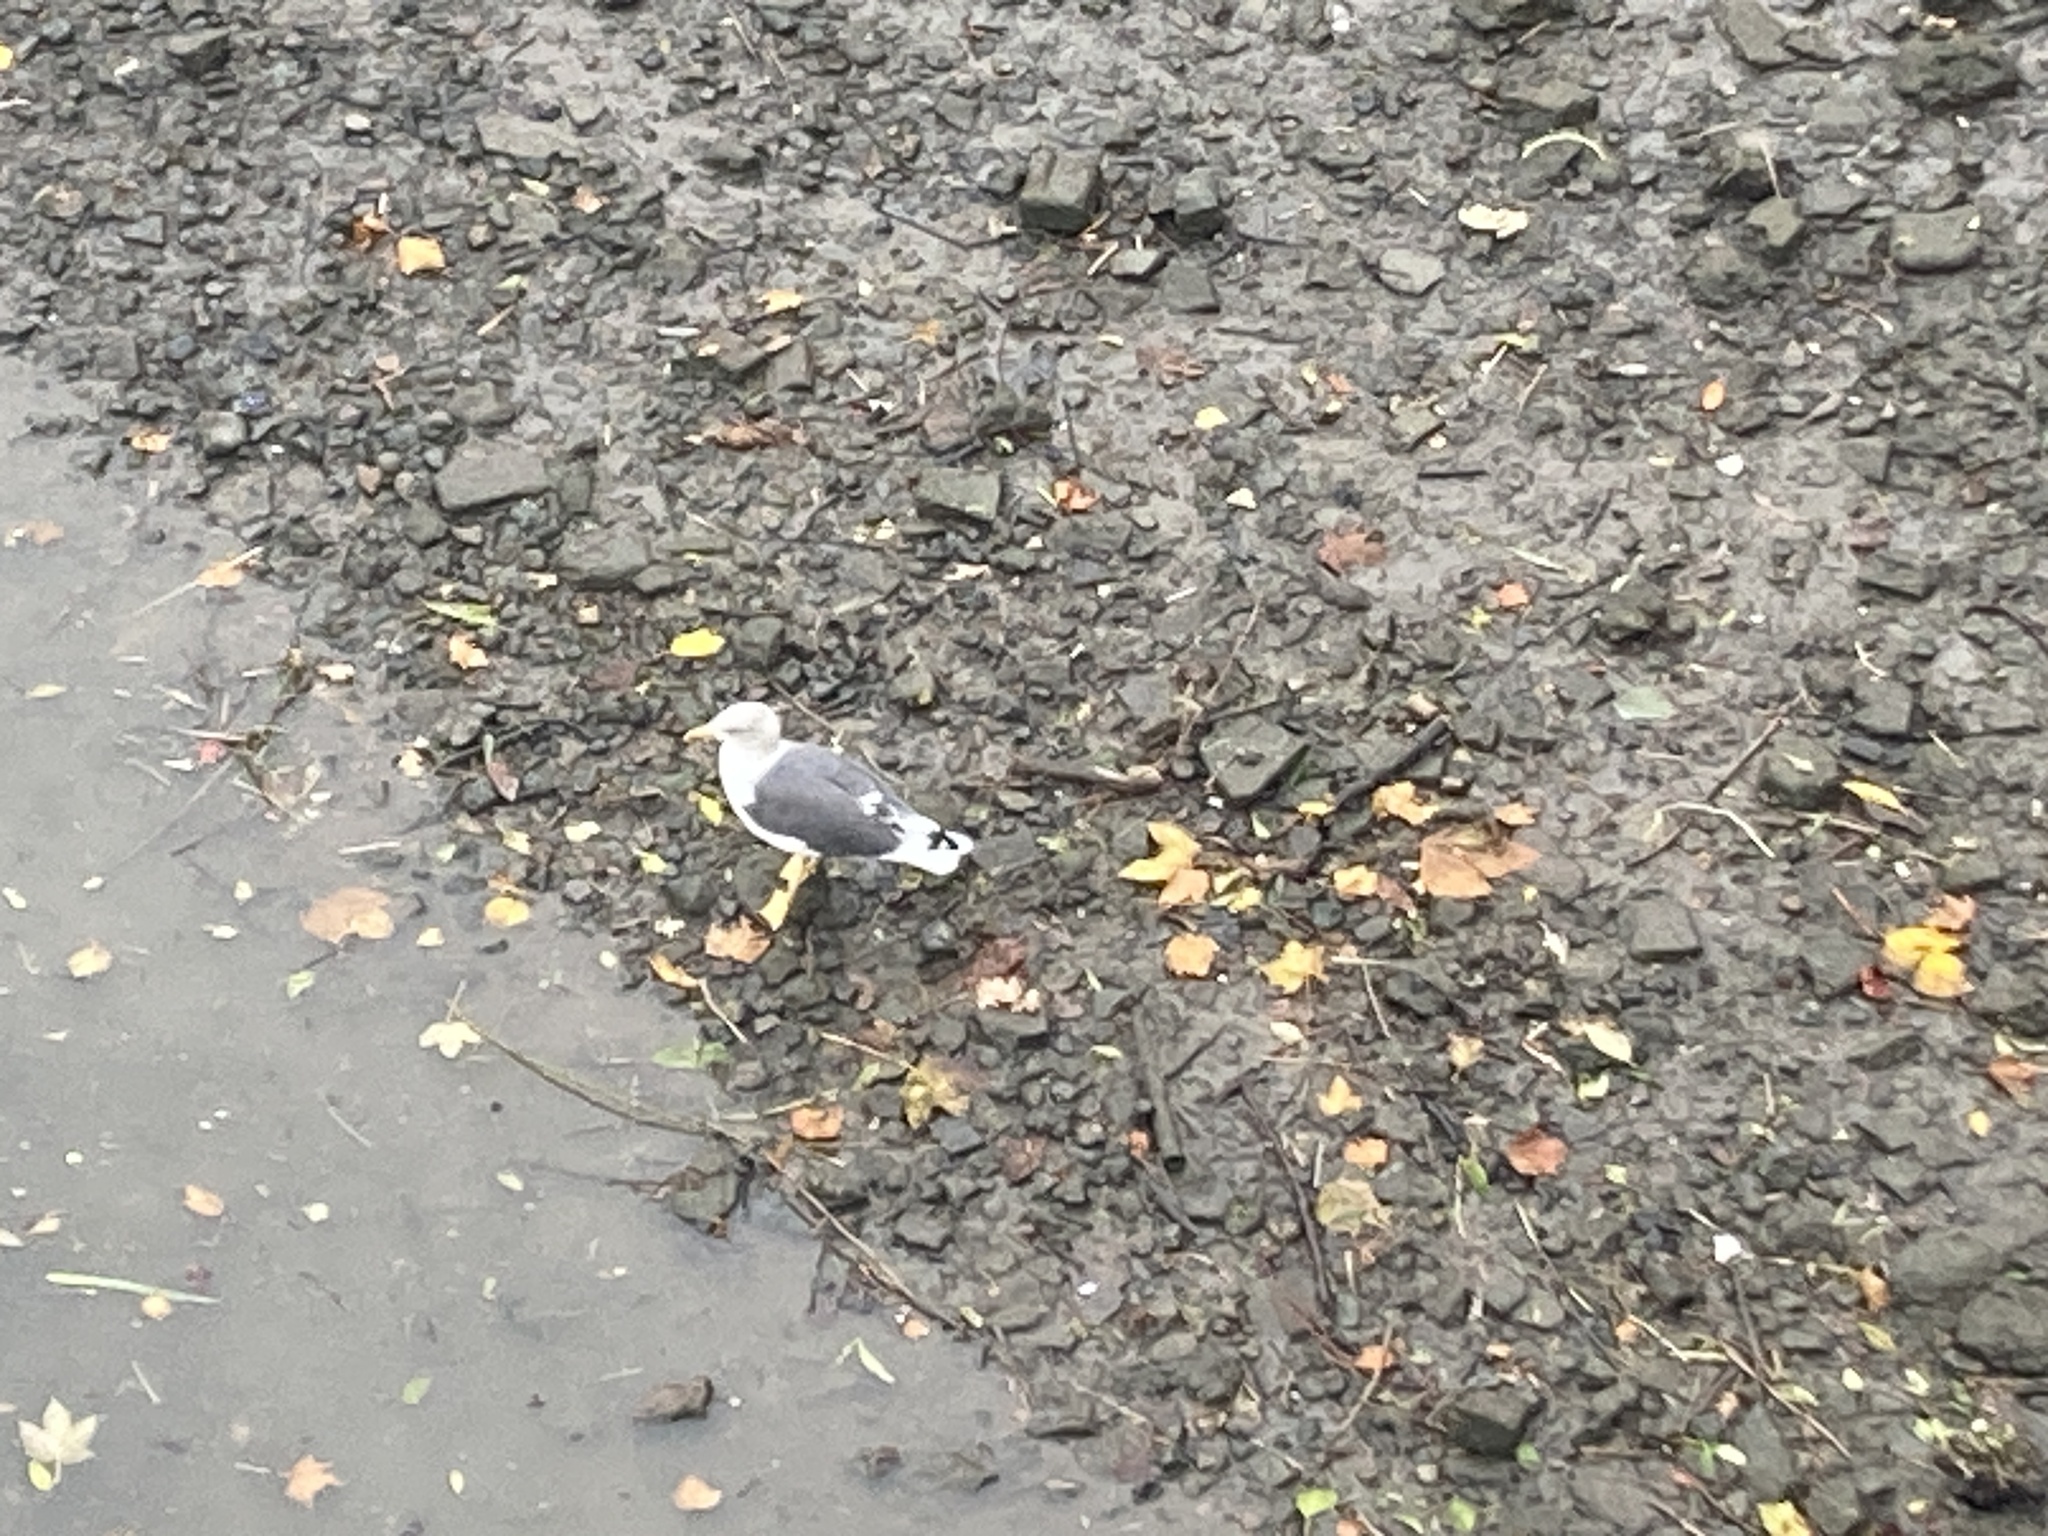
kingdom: Animalia
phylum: Chordata
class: Aves
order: Charadriiformes
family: Laridae
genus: Larus
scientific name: Larus fuscus
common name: Lesser black-backed gull
